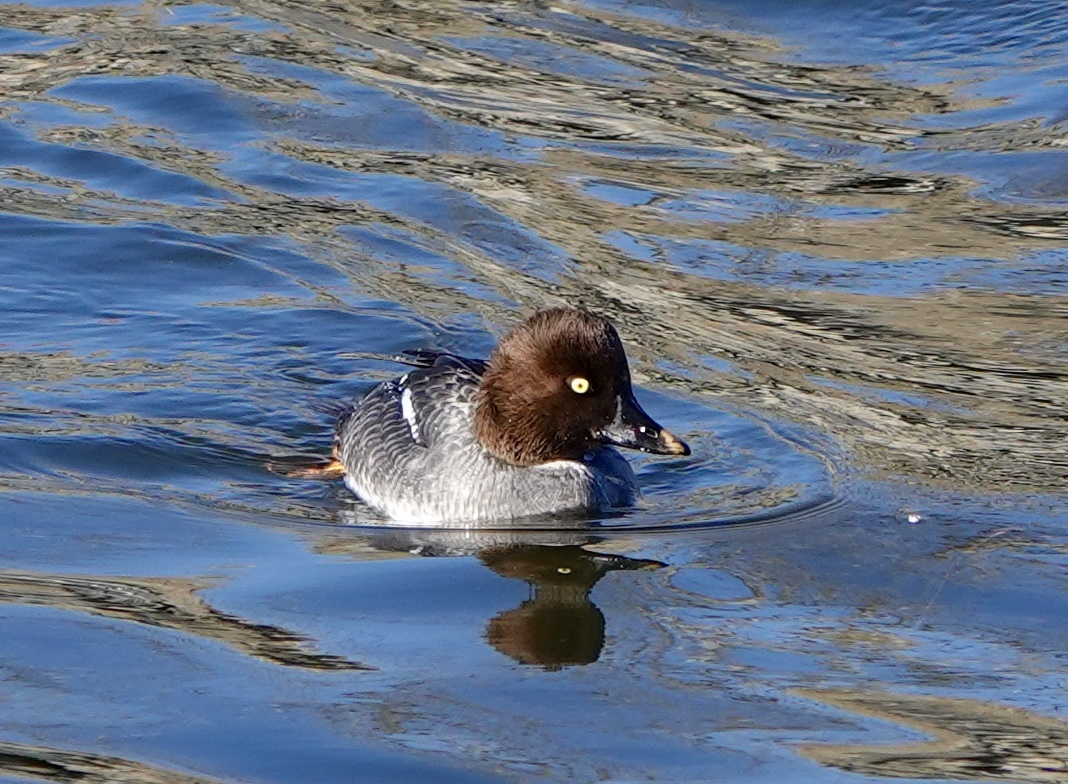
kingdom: Animalia
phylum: Chordata
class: Aves
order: Anseriformes
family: Anatidae
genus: Bucephala
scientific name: Bucephala clangula
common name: Common goldeneye
